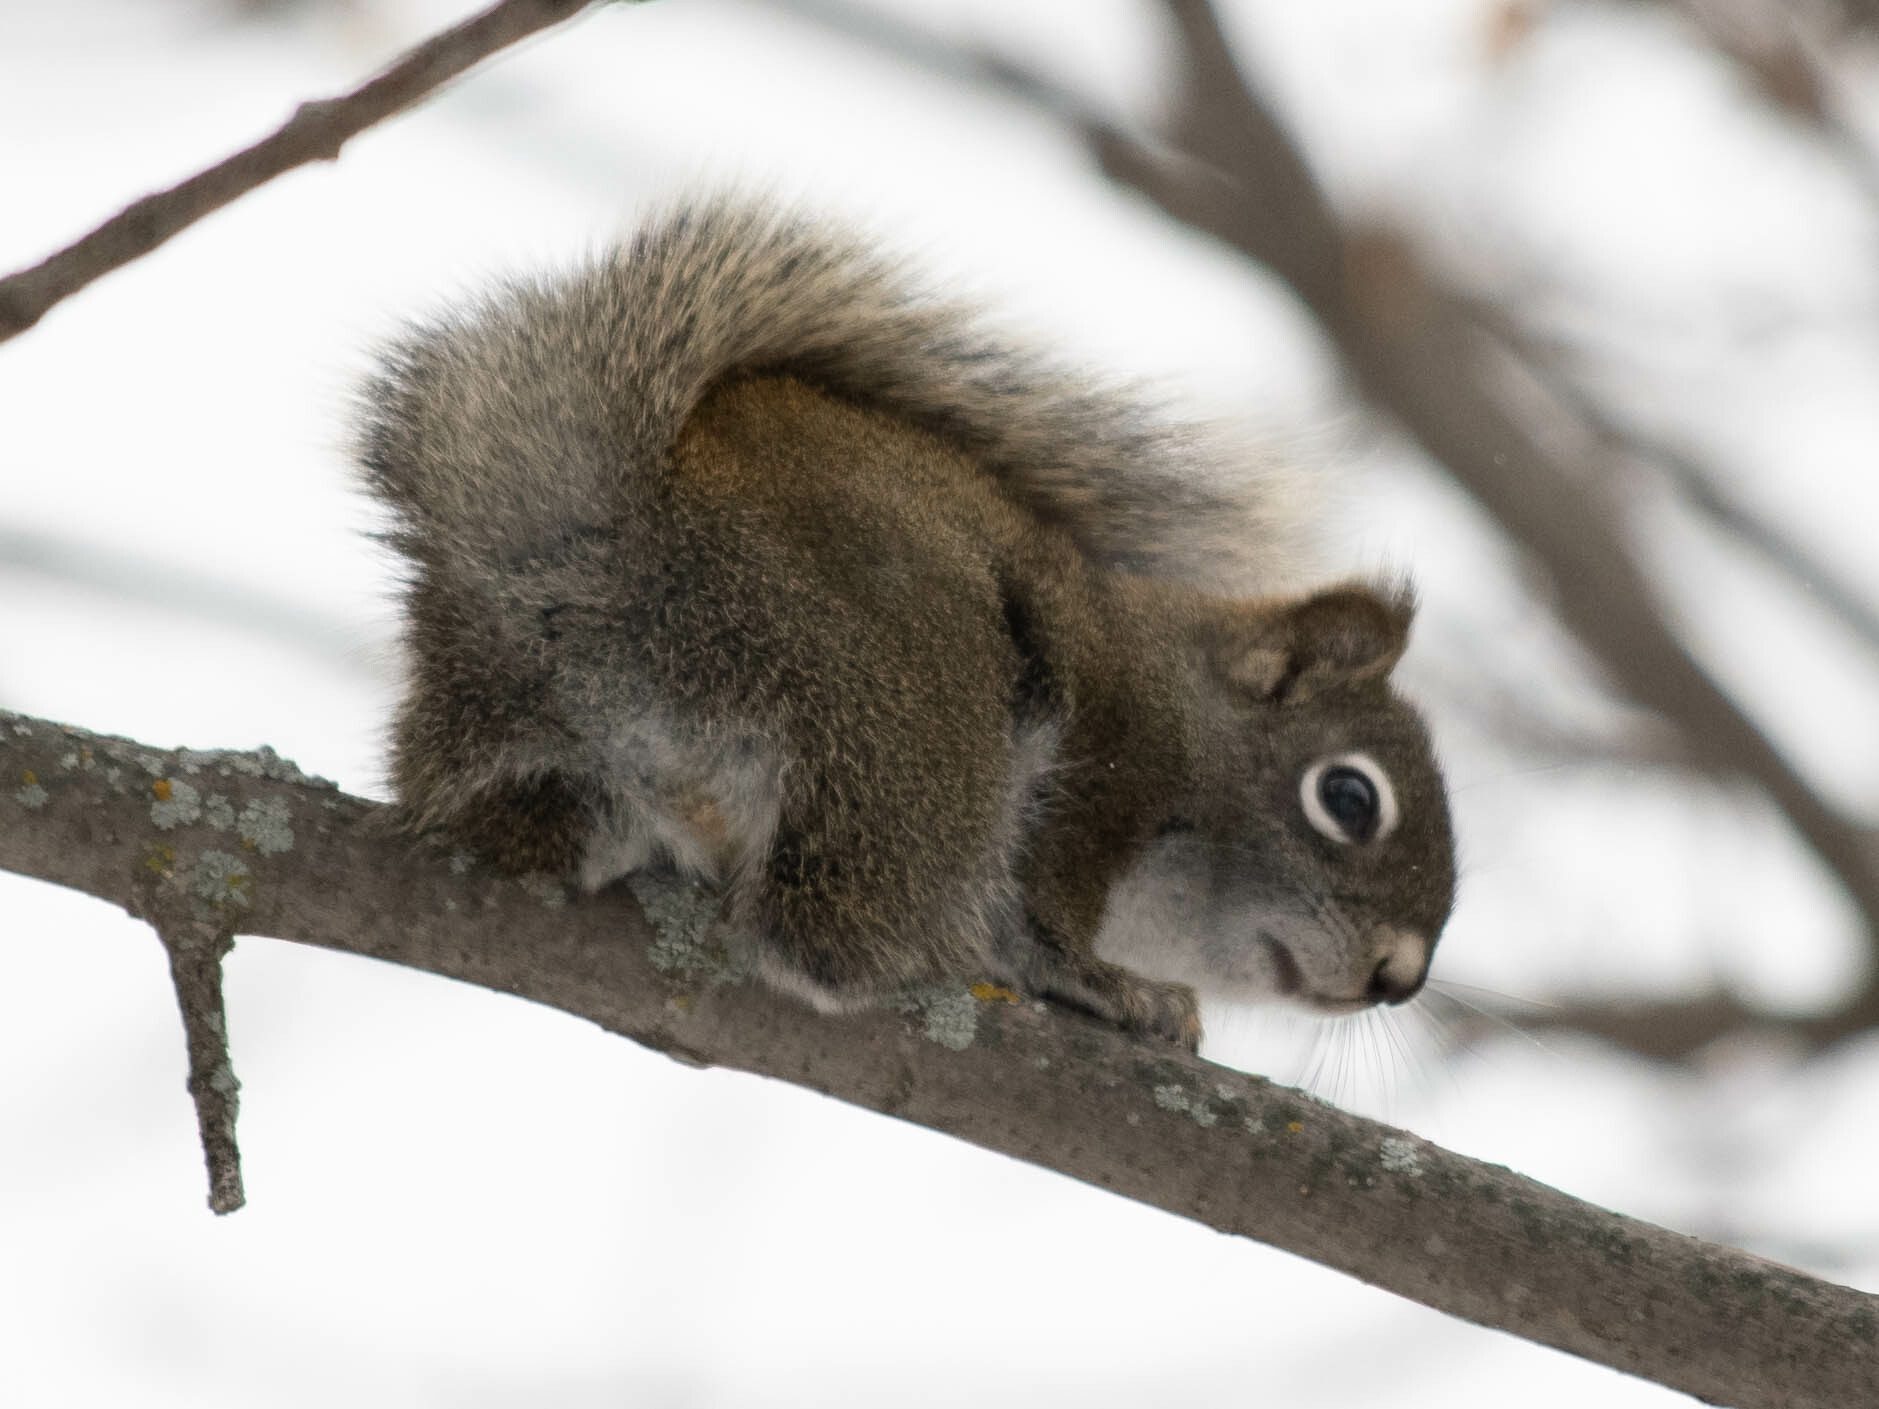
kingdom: Animalia
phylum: Chordata
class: Mammalia
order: Rodentia
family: Sciuridae
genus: Tamiasciurus
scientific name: Tamiasciurus hudsonicus
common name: Red squirrel
